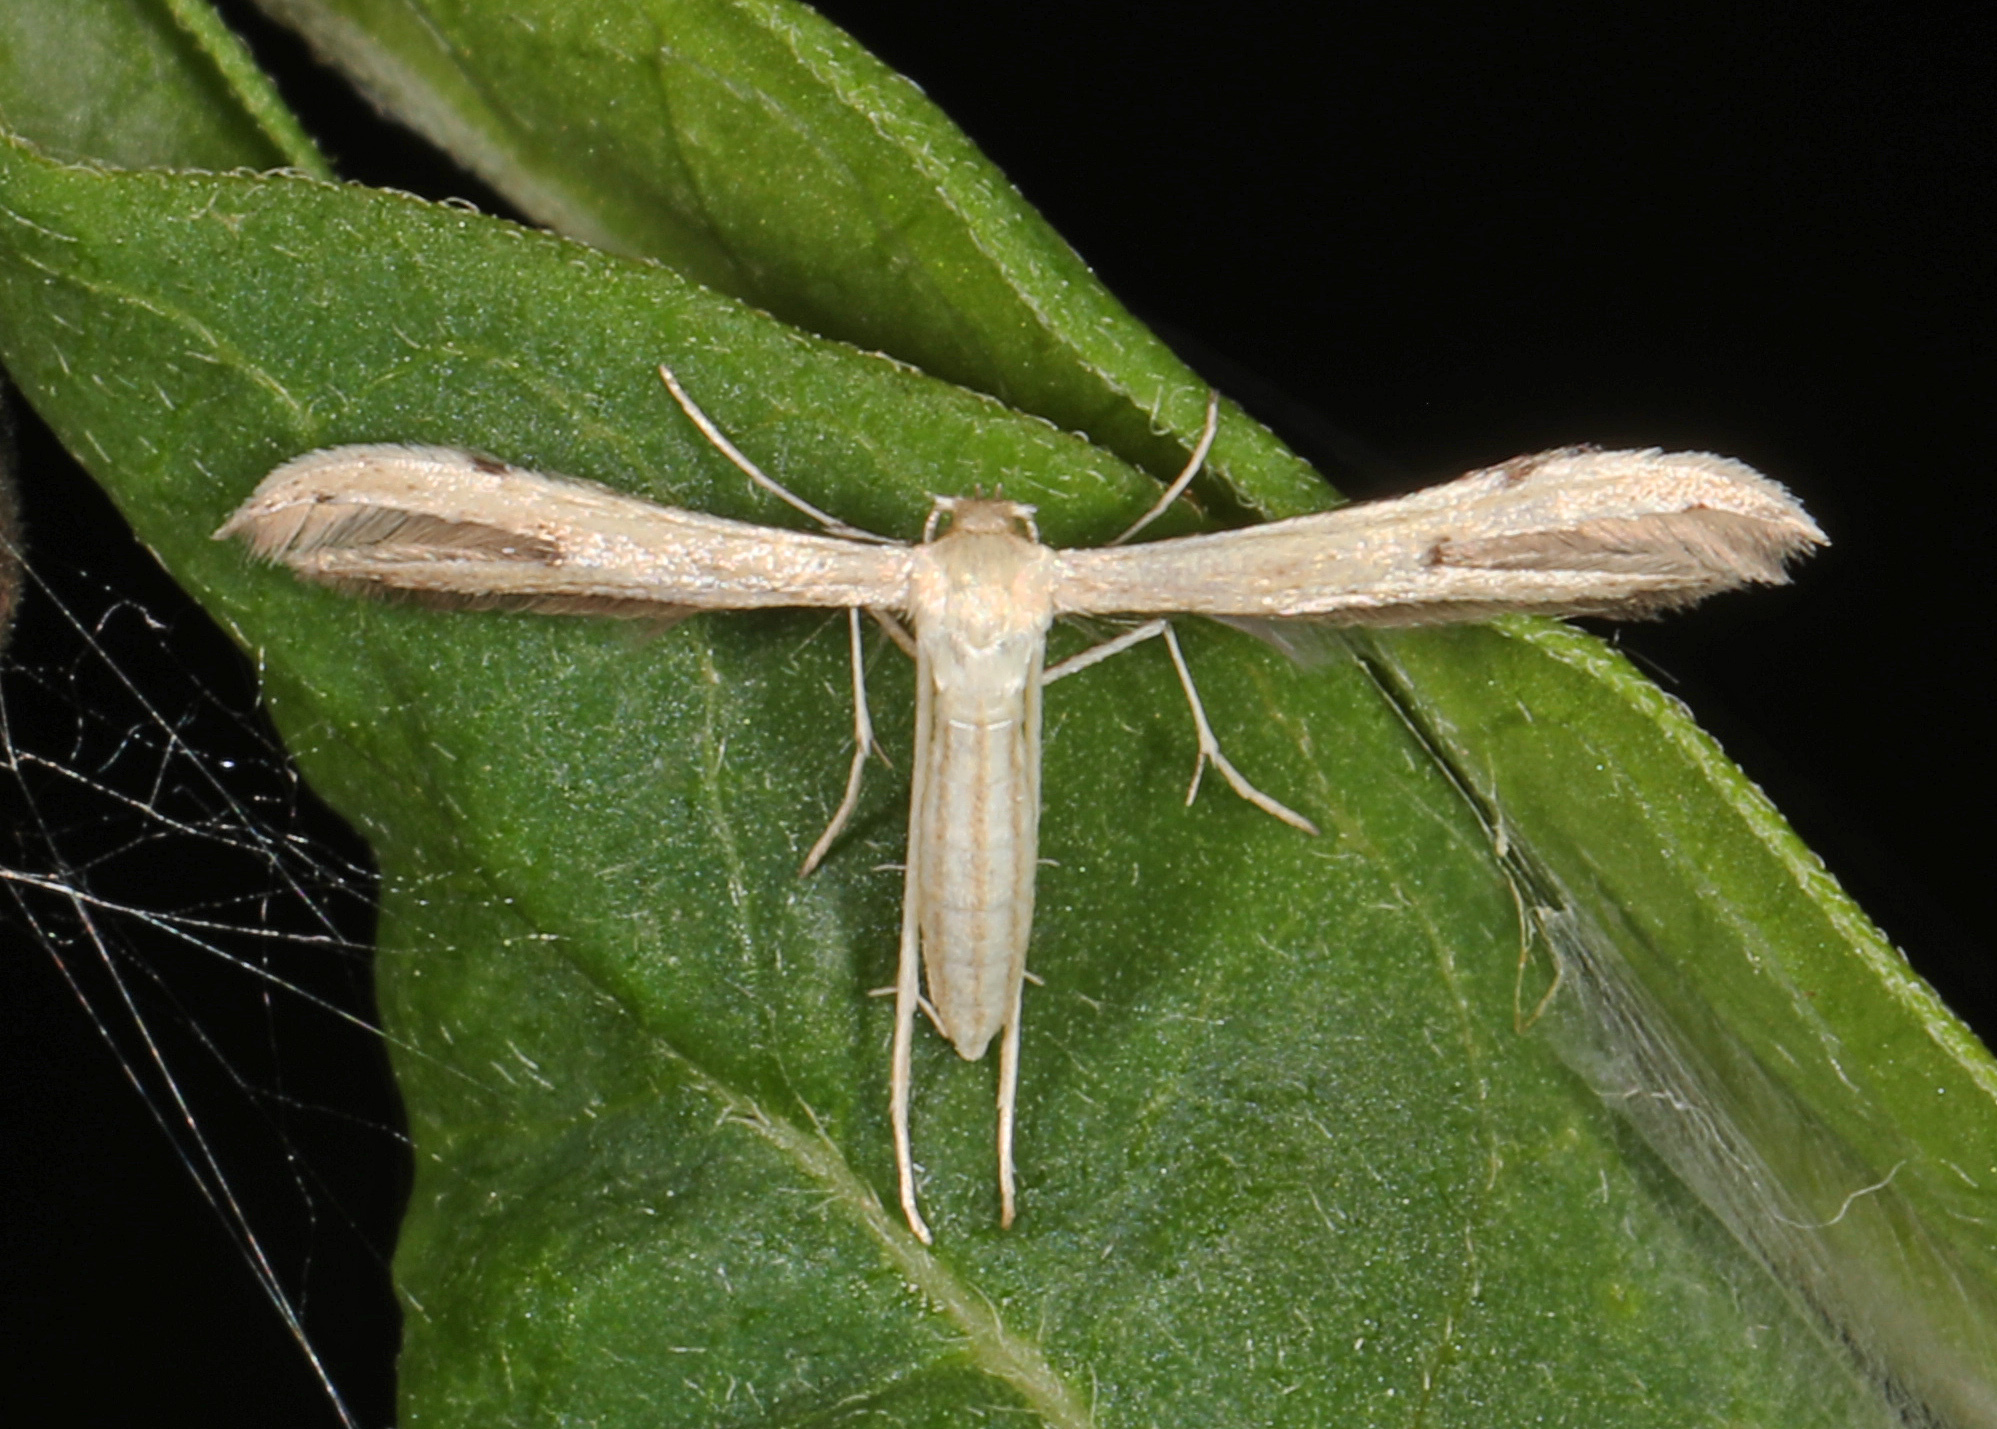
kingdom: Animalia
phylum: Arthropoda
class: Insecta
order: Lepidoptera
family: Pterophoridae
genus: Adaina
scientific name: Adaina
